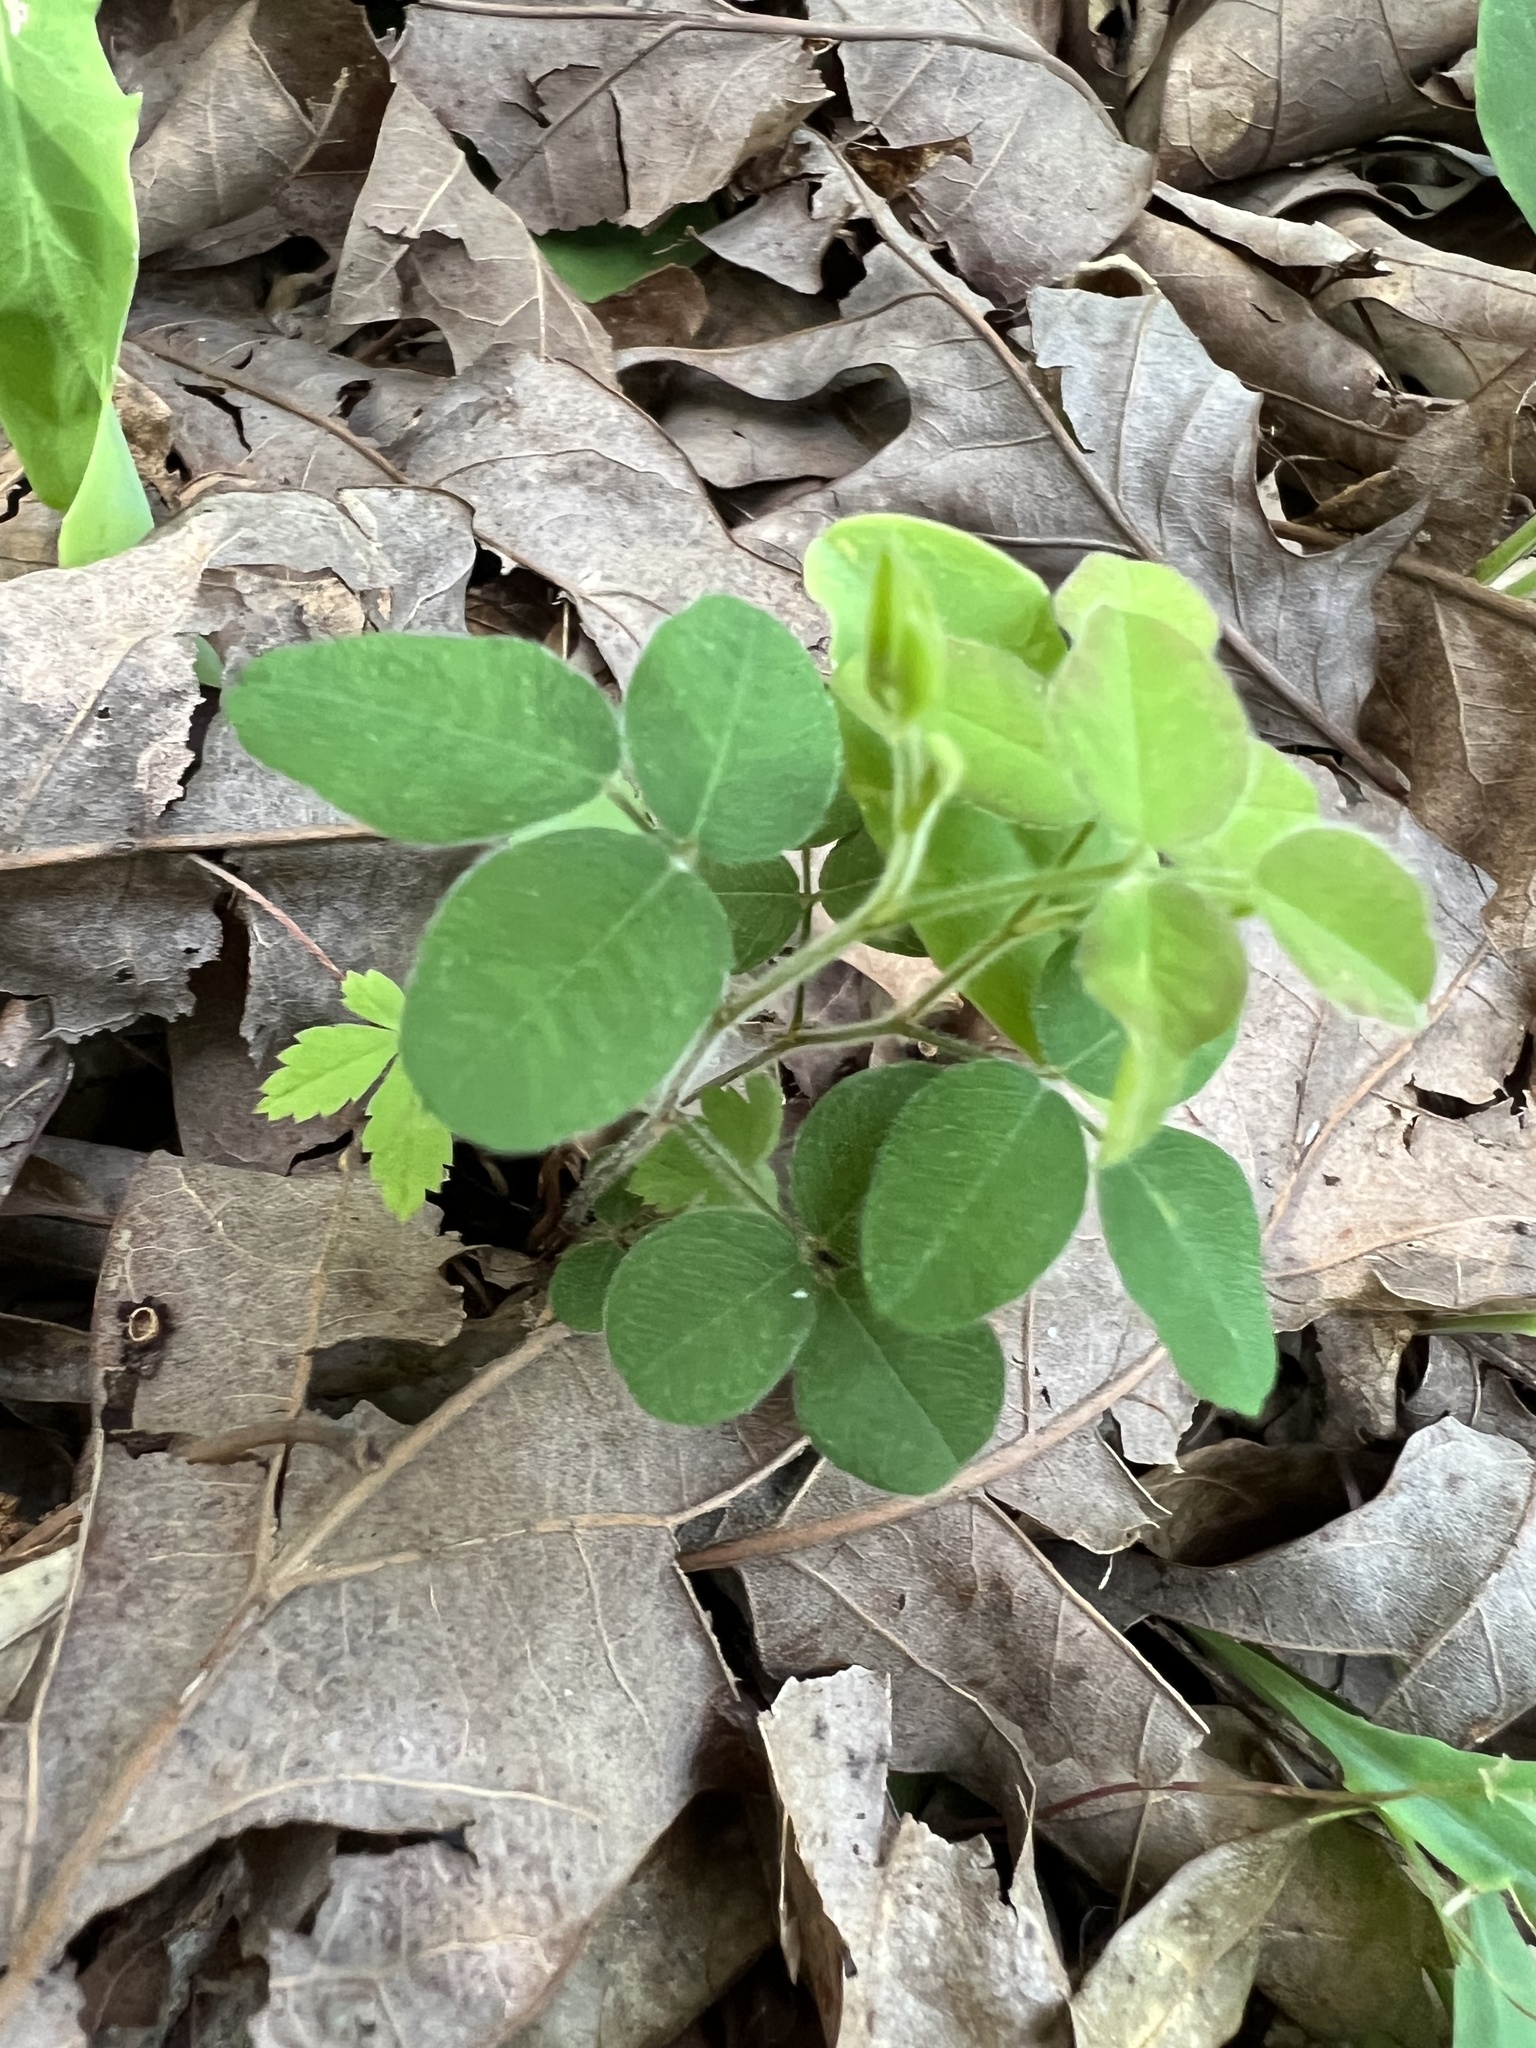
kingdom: Plantae
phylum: Tracheophyta
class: Magnoliopsida
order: Fabales
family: Fabaceae
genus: Lespedeza
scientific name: Lespedeza procumbens
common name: Downy trailing bush-clover
